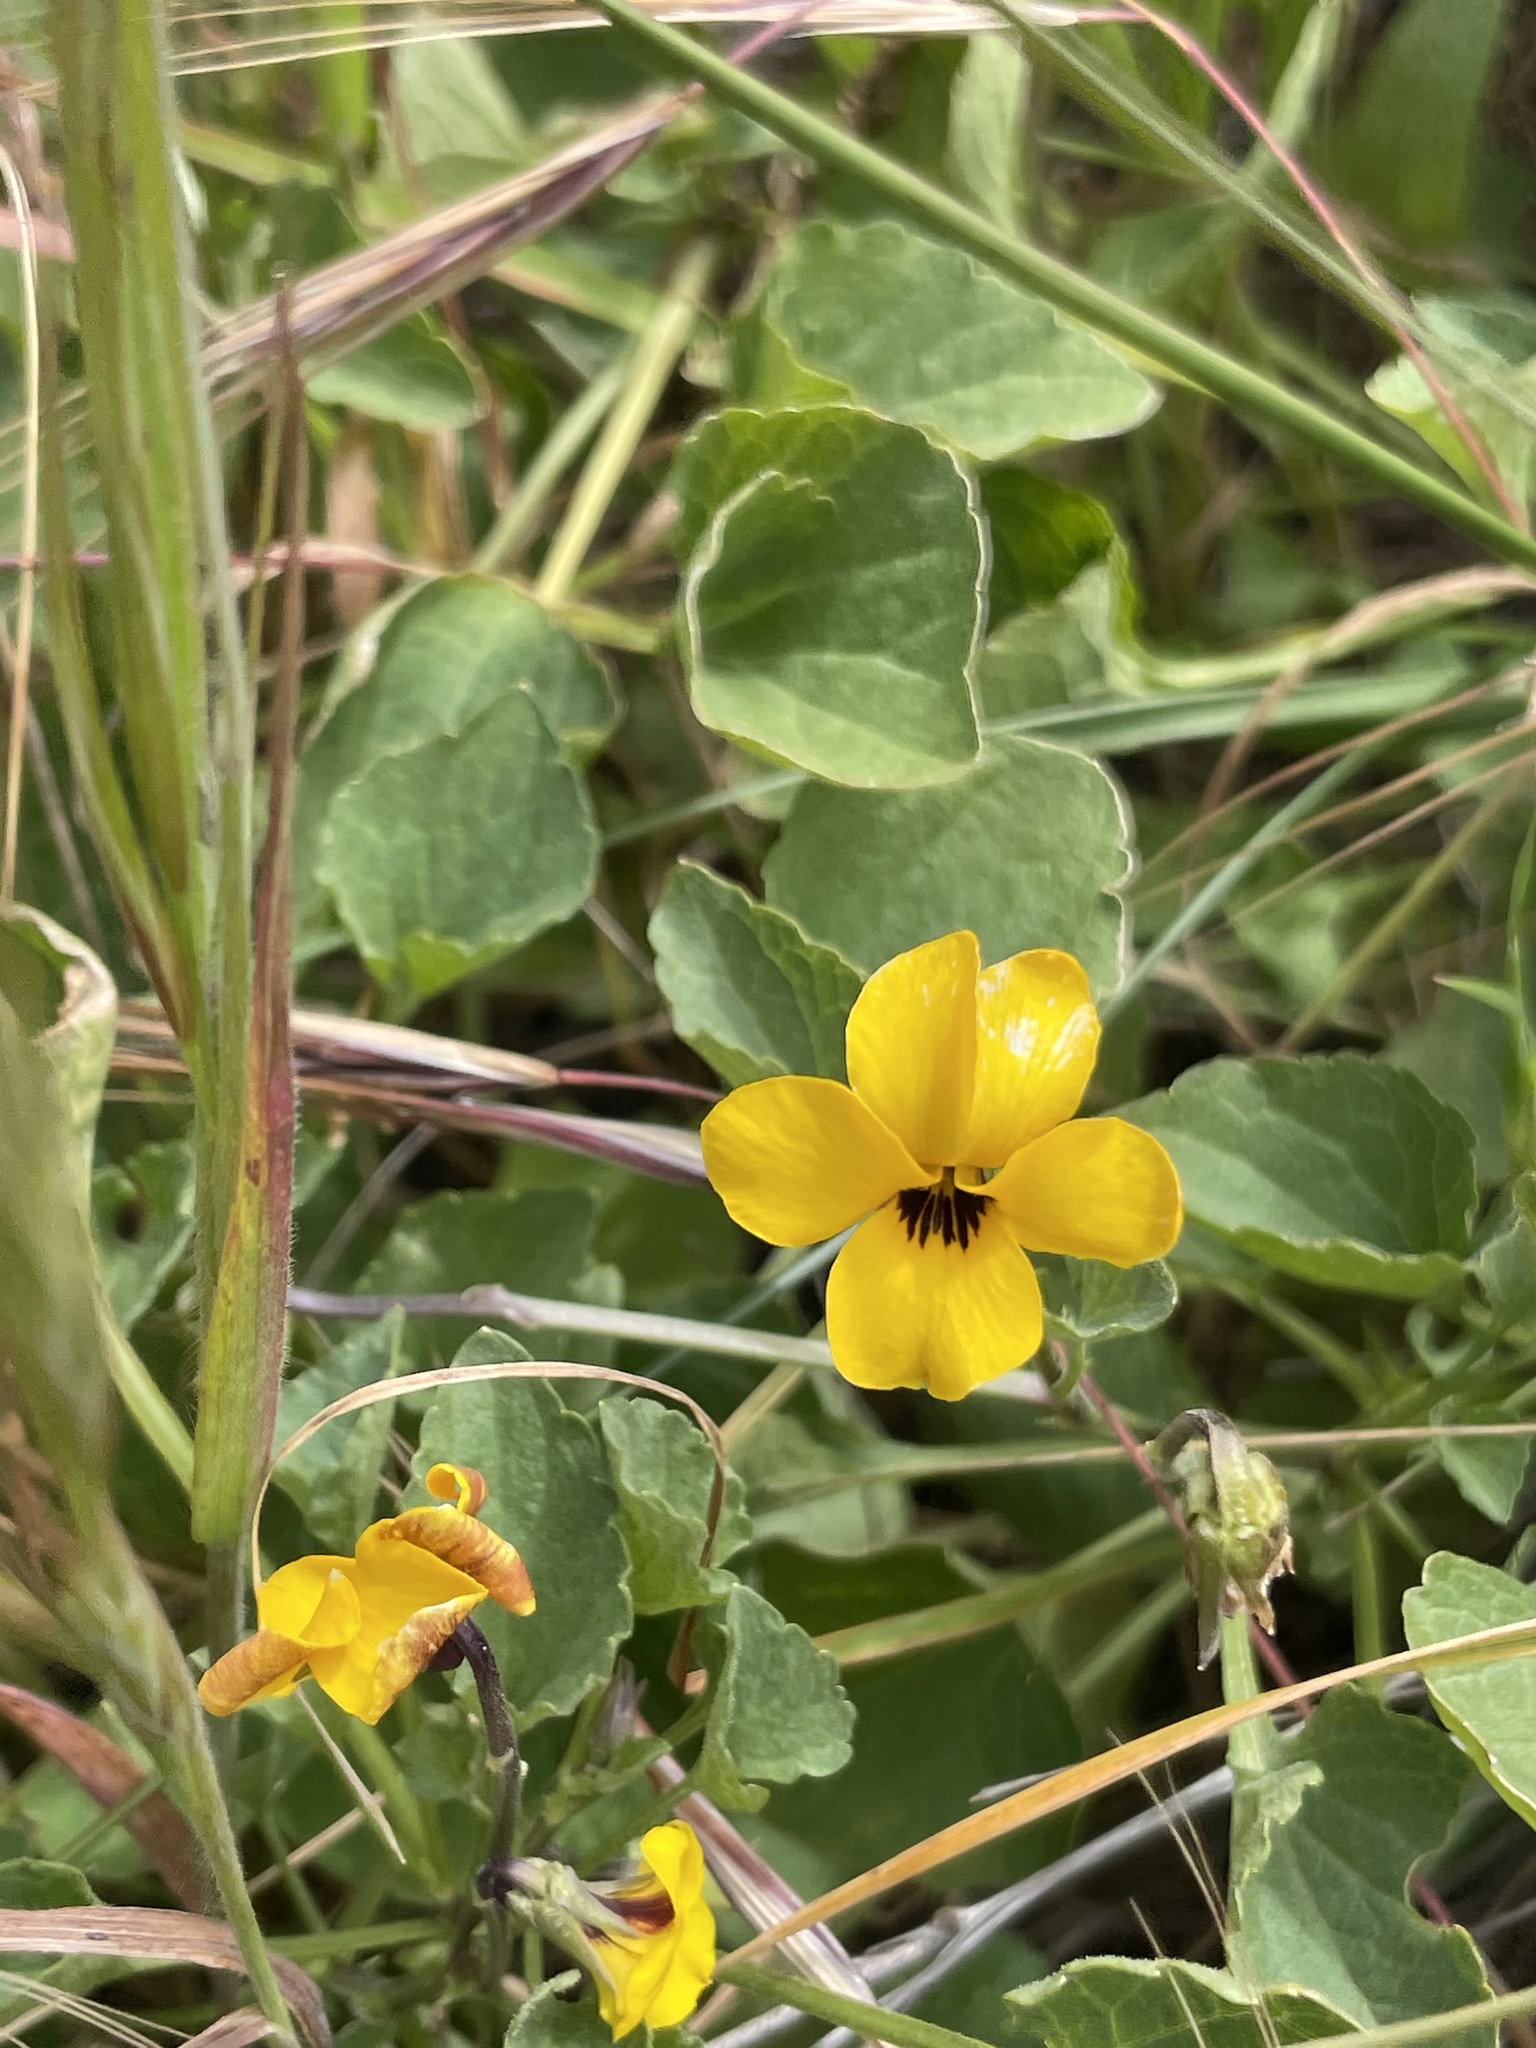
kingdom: Plantae
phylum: Tracheophyta
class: Magnoliopsida
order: Malpighiales
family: Violaceae
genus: Viola
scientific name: Viola pedunculata
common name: California golden violet
